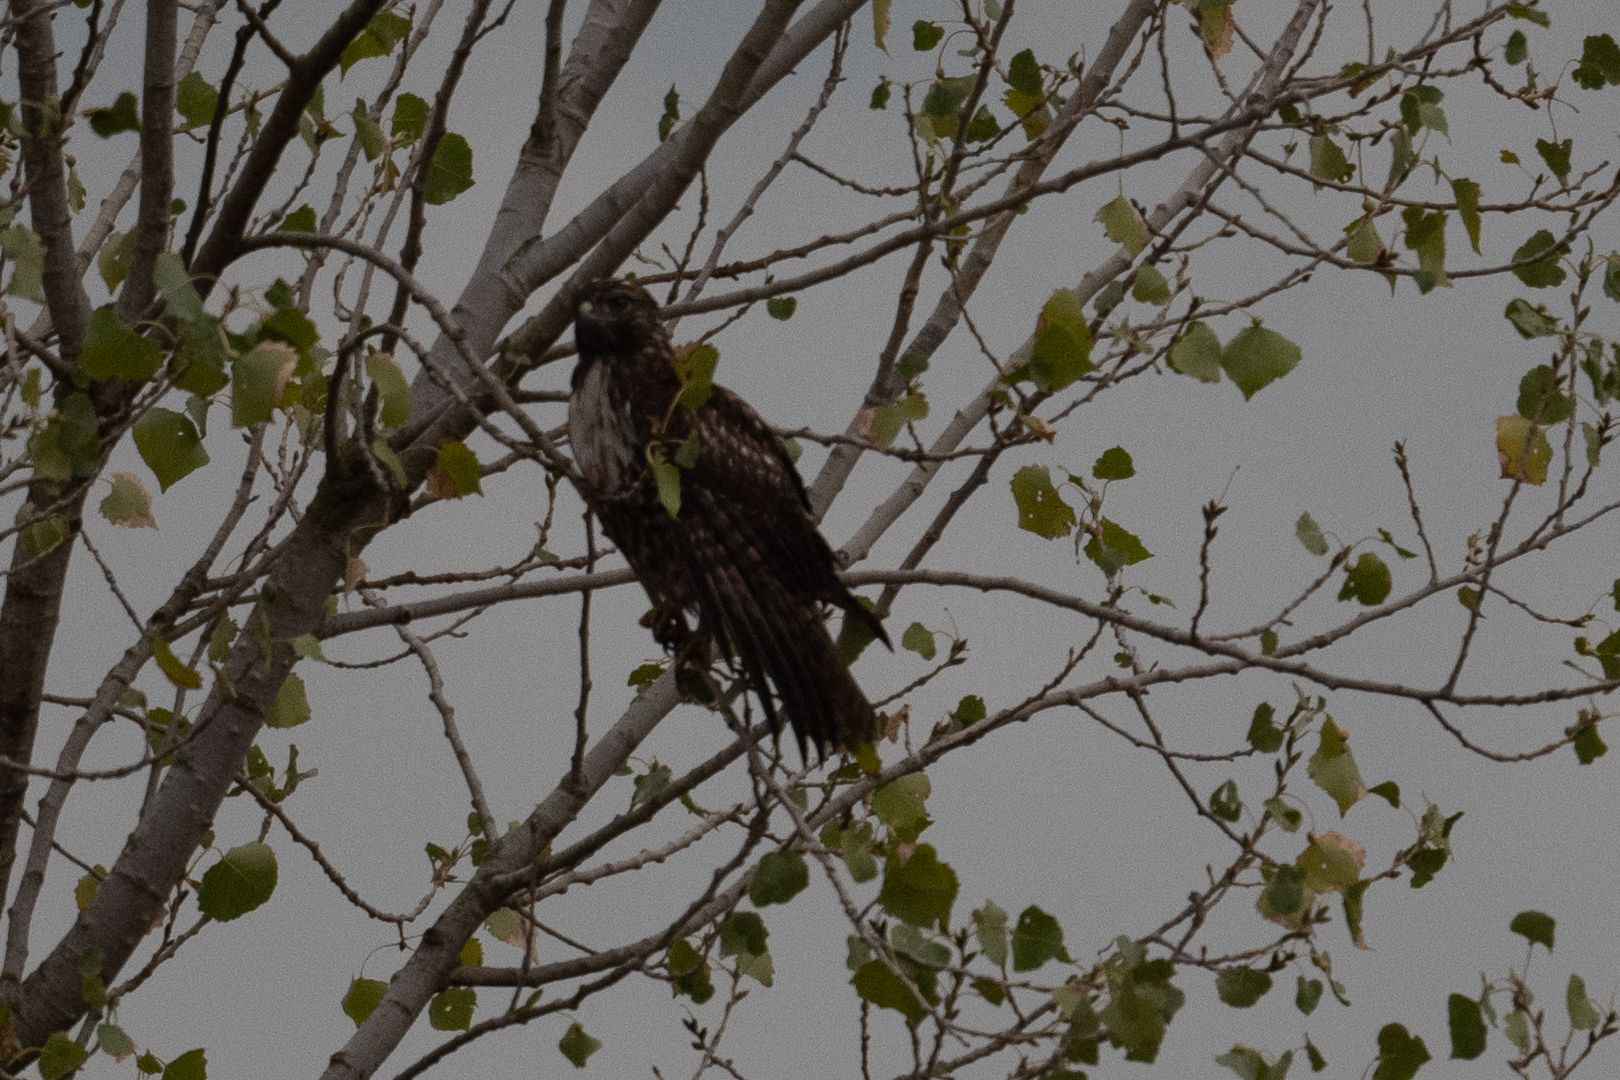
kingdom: Animalia
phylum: Chordata
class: Aves
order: Accipitriformes
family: Accipitridae
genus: Buteo
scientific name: Buteo jamaicensis
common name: Red-tailed hawk
